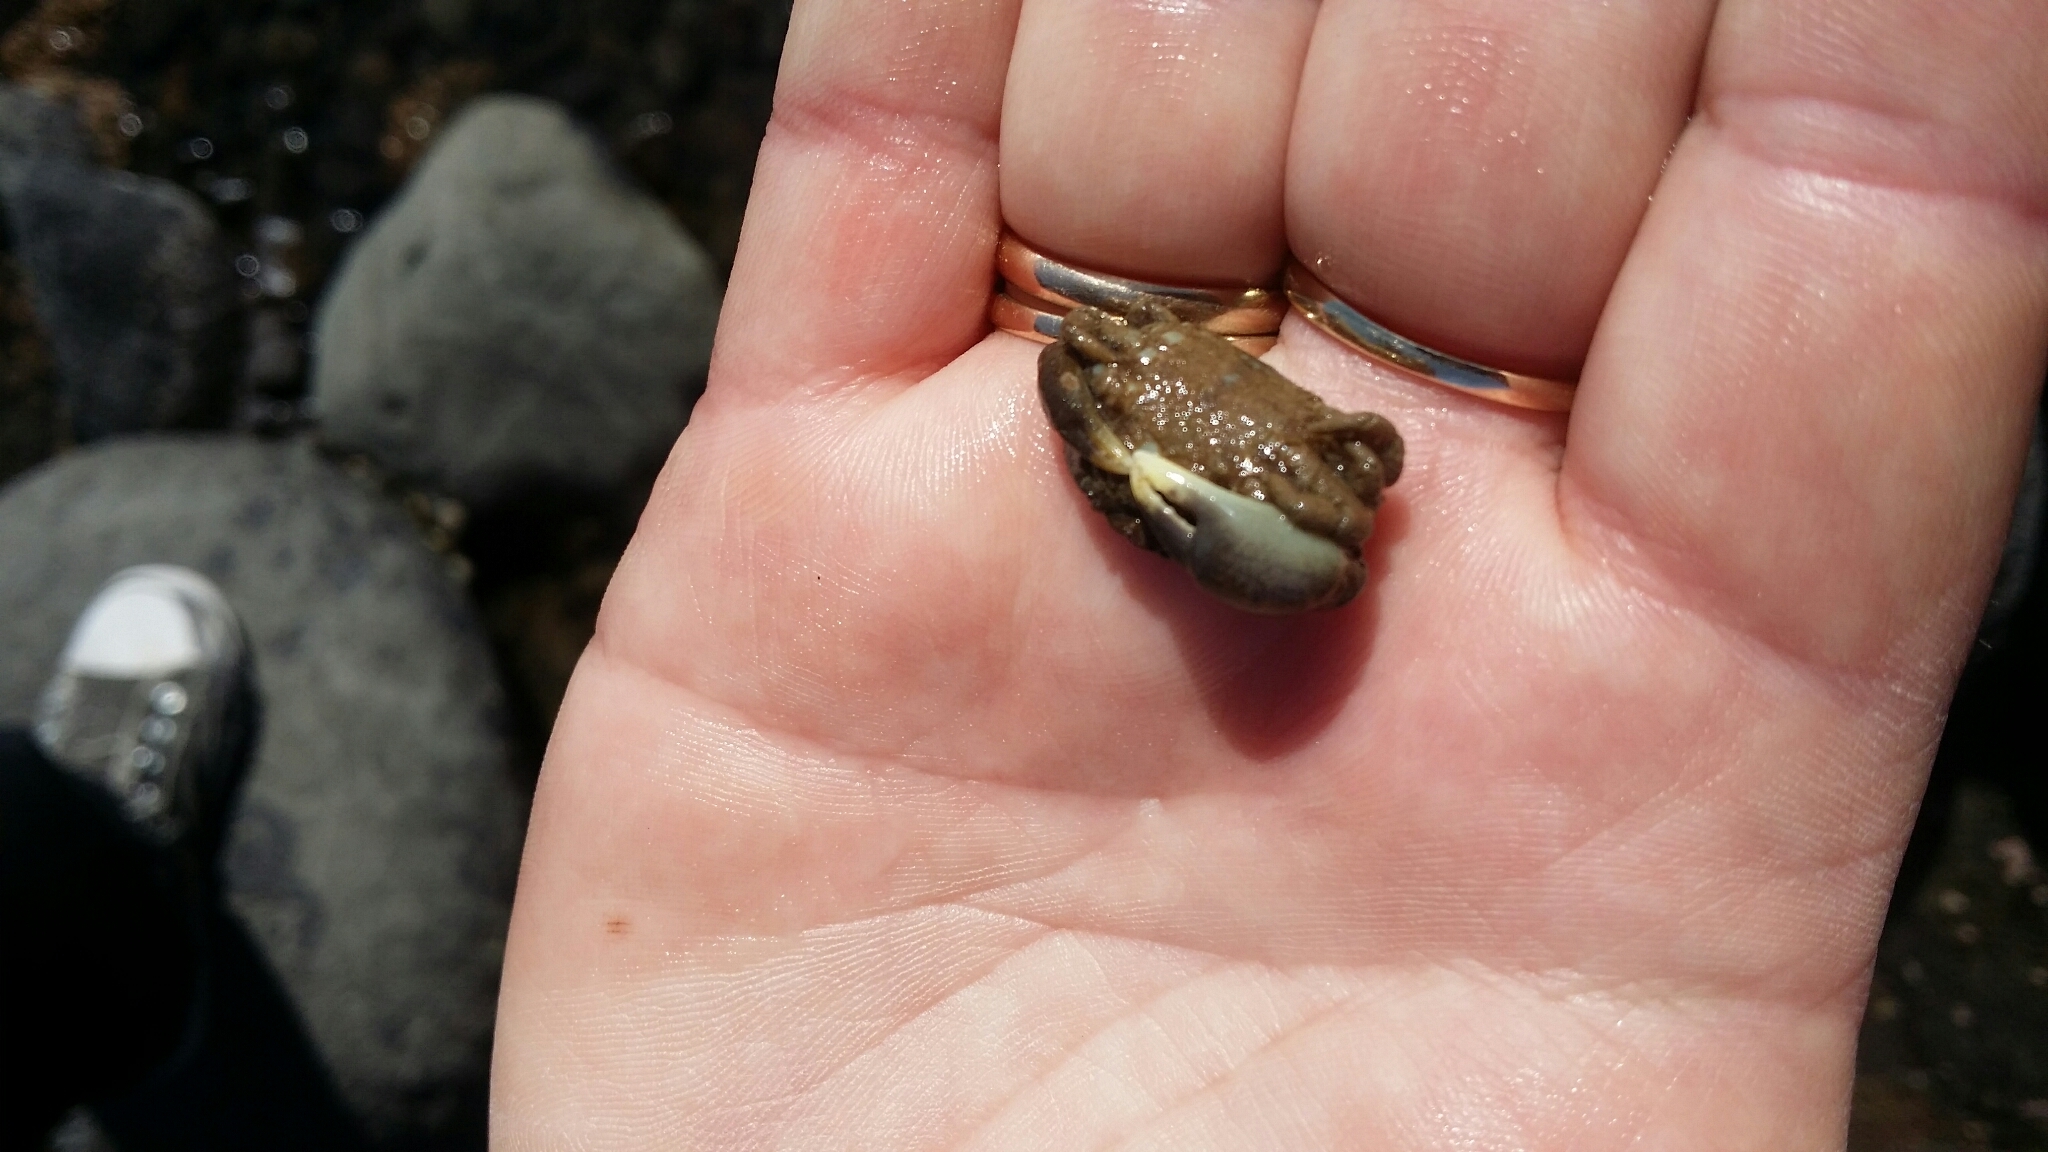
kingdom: Animalia
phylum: Arthropoda
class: Malacostraca
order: Decapoda
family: Heteroziidae
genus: Heterozius
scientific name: Heterozius rotundifrons
